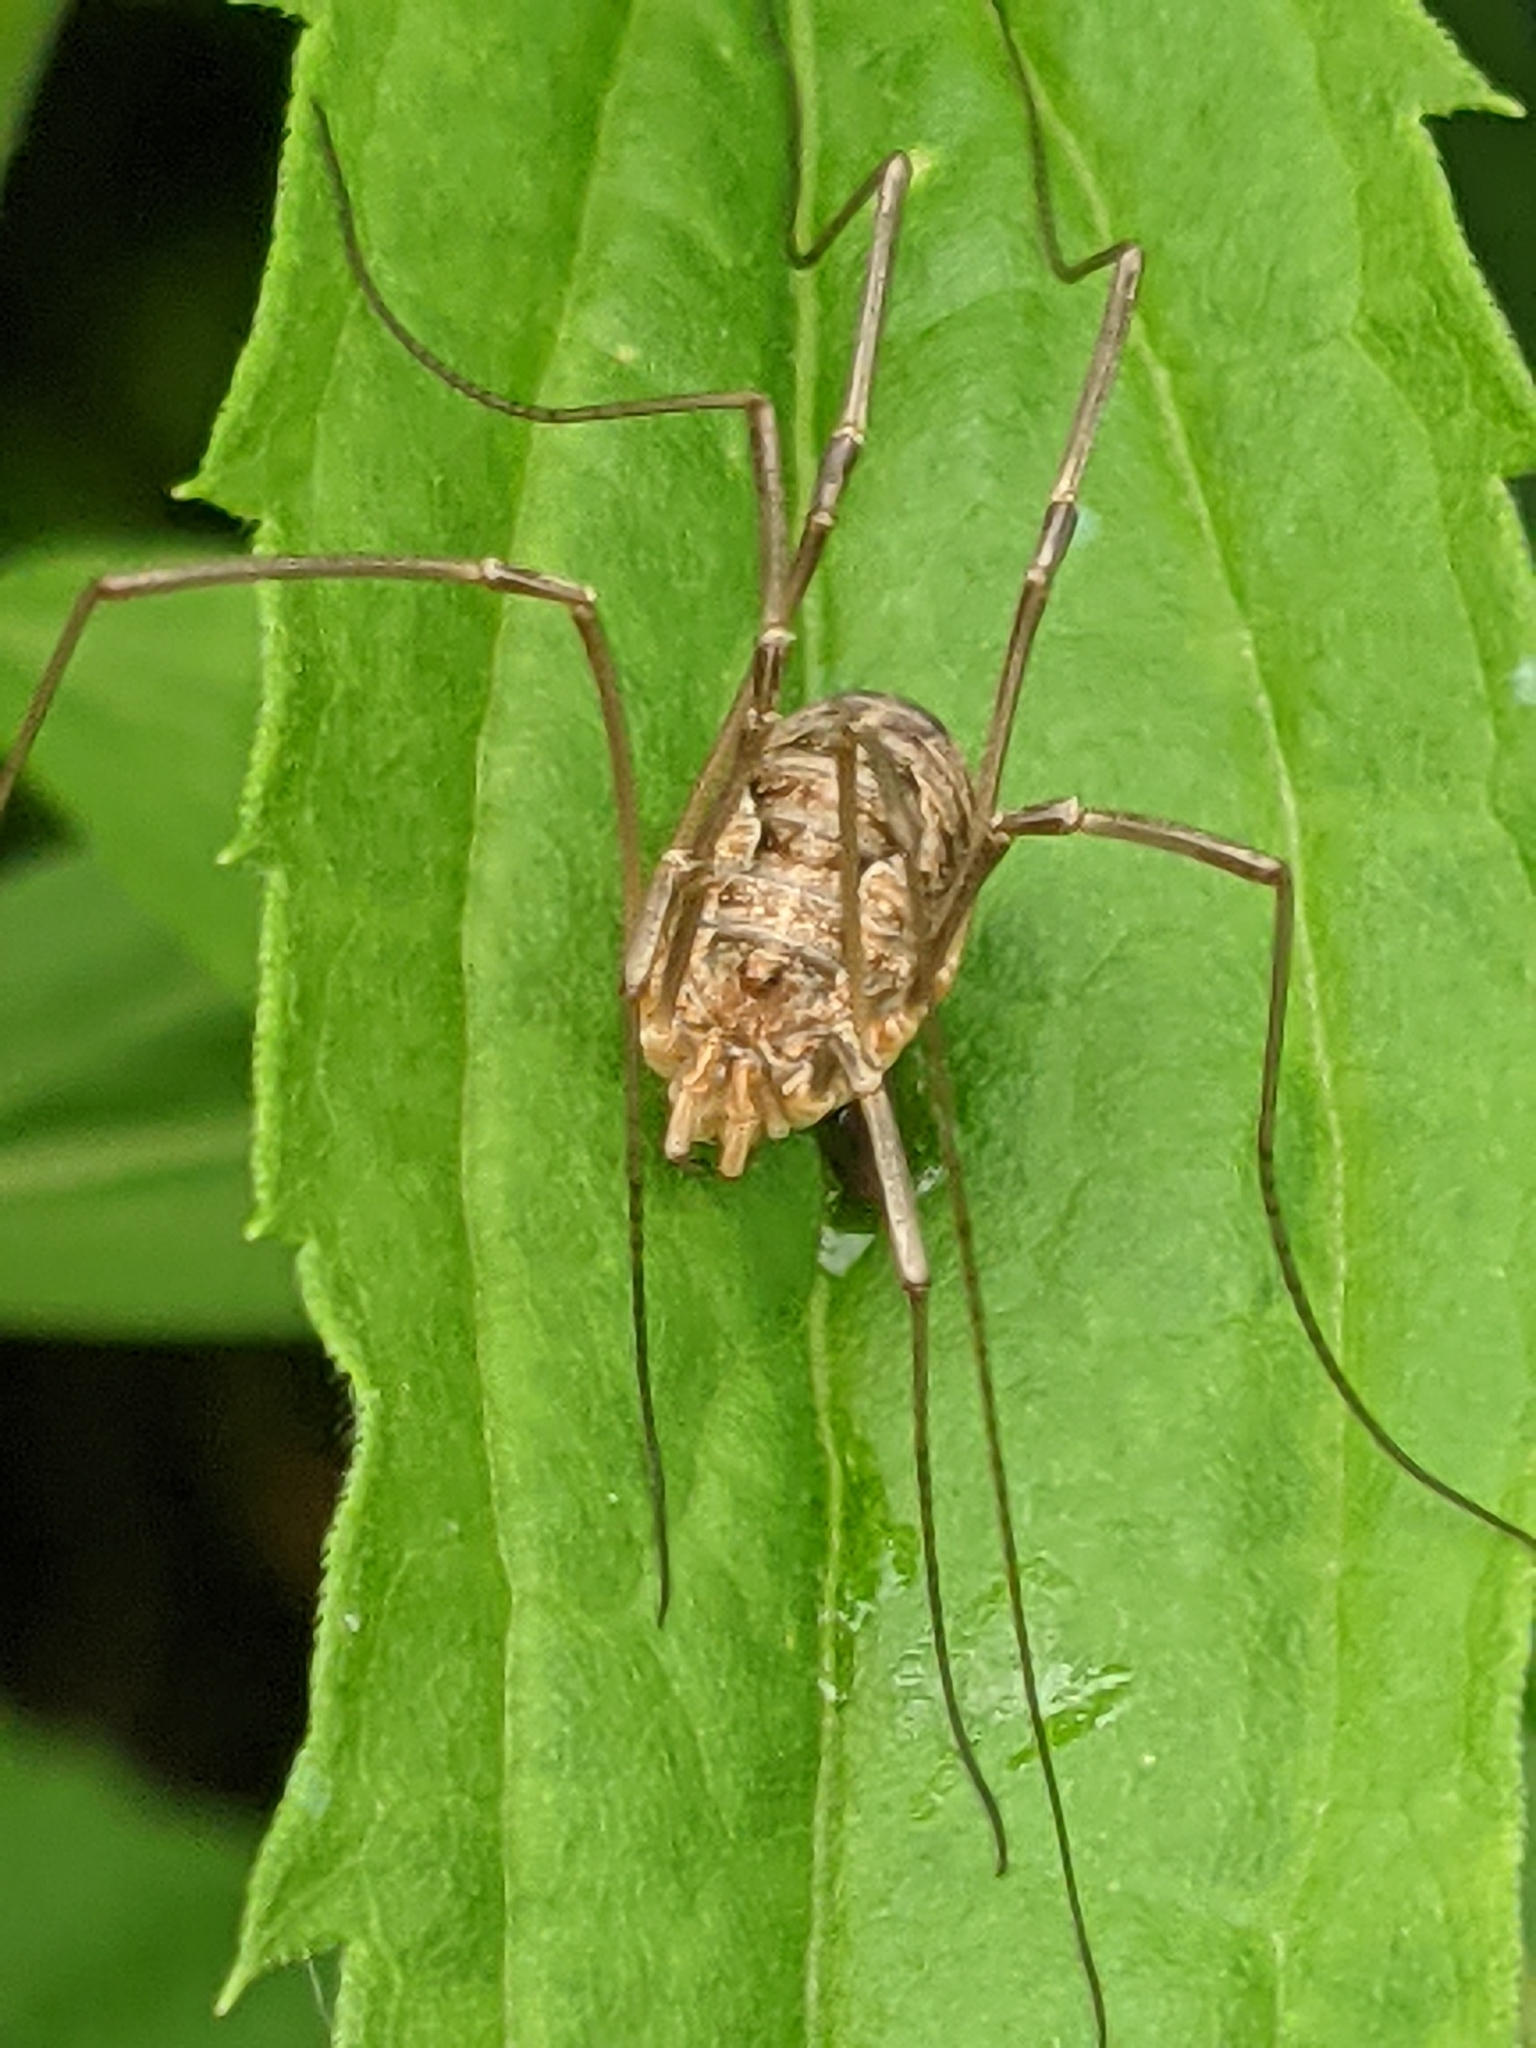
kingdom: Animalia
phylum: Arthropoda
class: Arachnida
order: Opiliones
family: Phalangiidae
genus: Phalangium
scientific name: Phalangium opilio
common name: Daddy longleg
